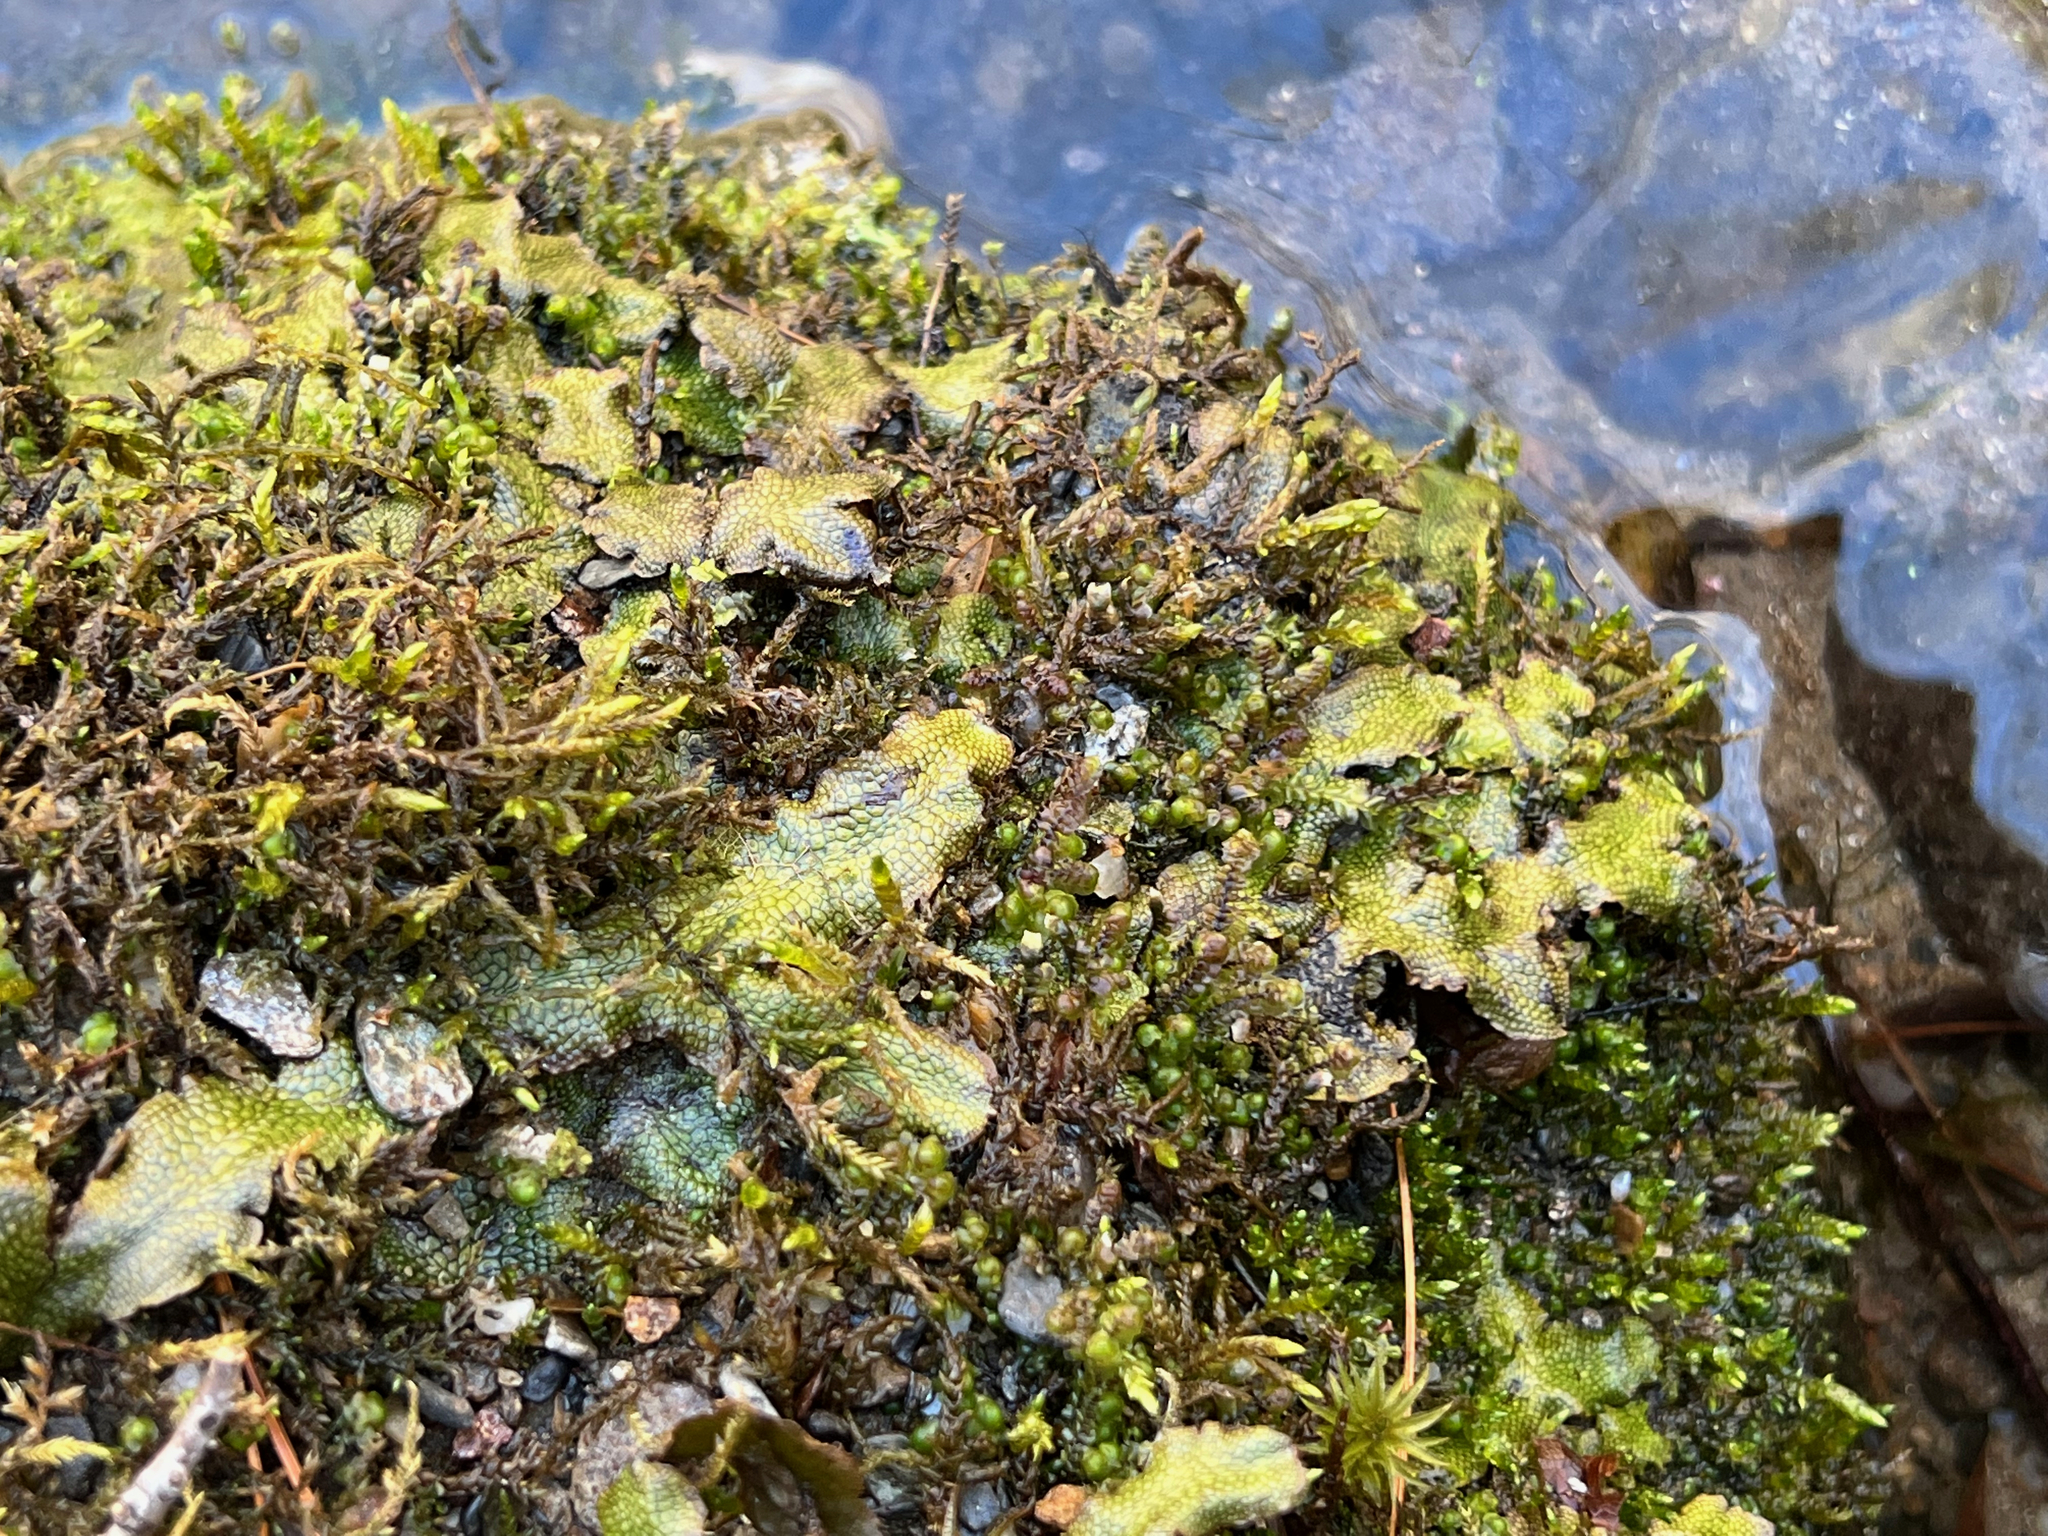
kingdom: Plantae
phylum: Marchantiophyta
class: Marchantiopsida
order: Marchantiales
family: Conocephalaceae
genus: Conocephalum
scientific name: Conocephalum salebrosum
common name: Cat-tongue liverwort
